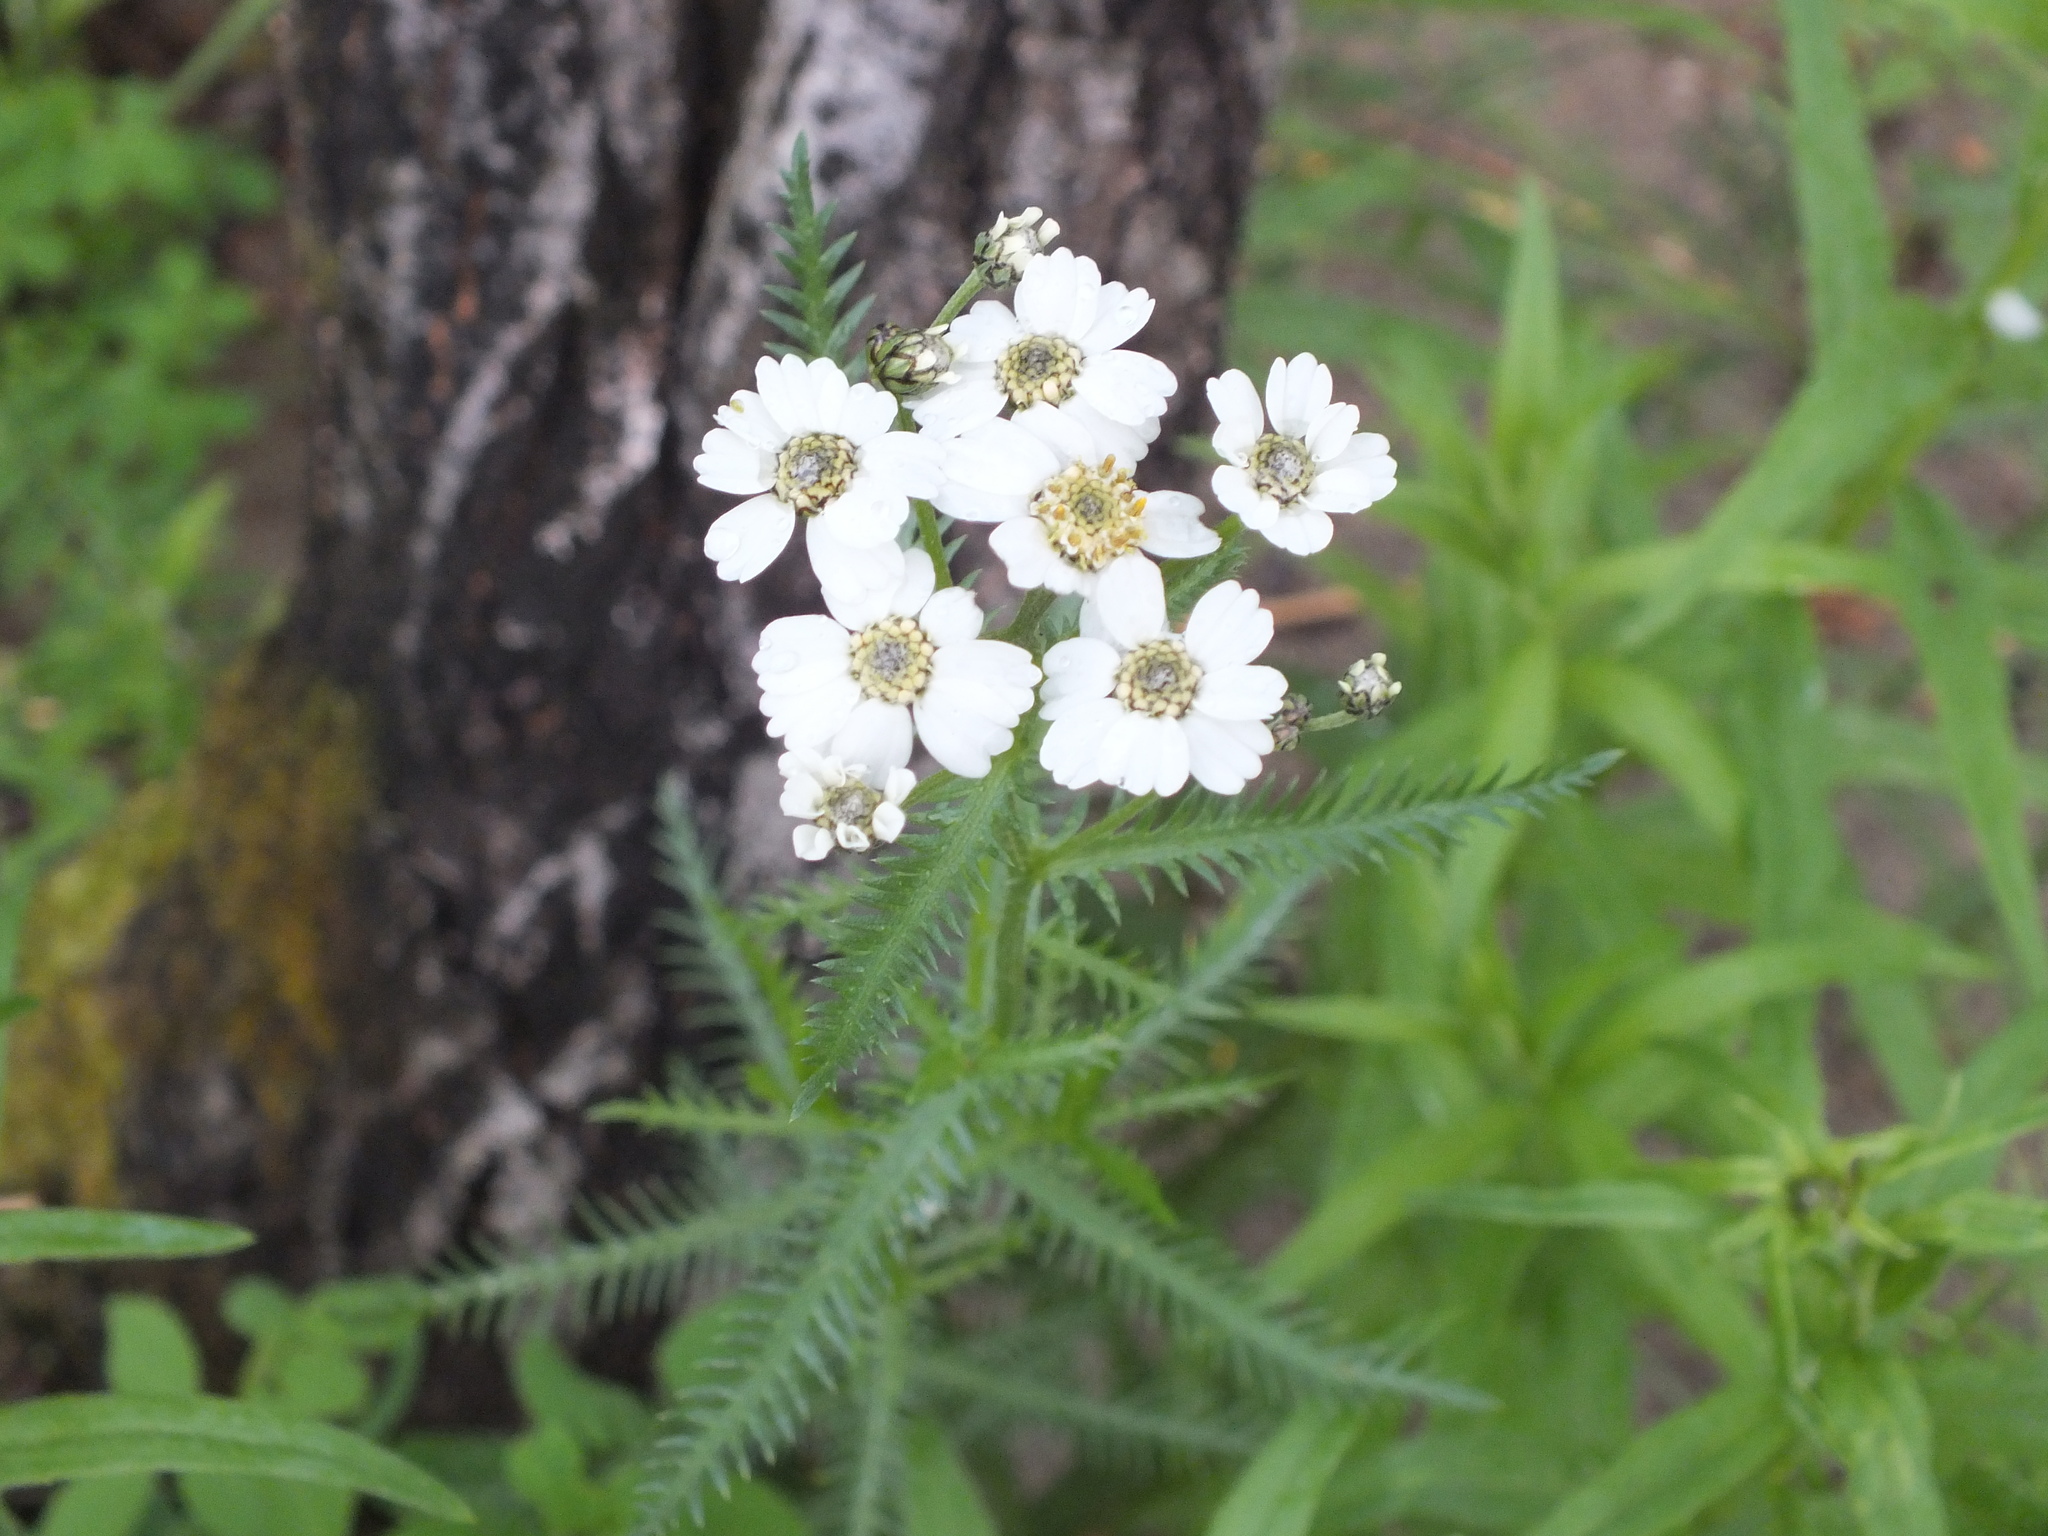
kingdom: Plantae
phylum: Tracheophyta
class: Magnoliopsida
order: Asterales
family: Asteraceae
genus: Achillea
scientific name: Achillea impatiens
